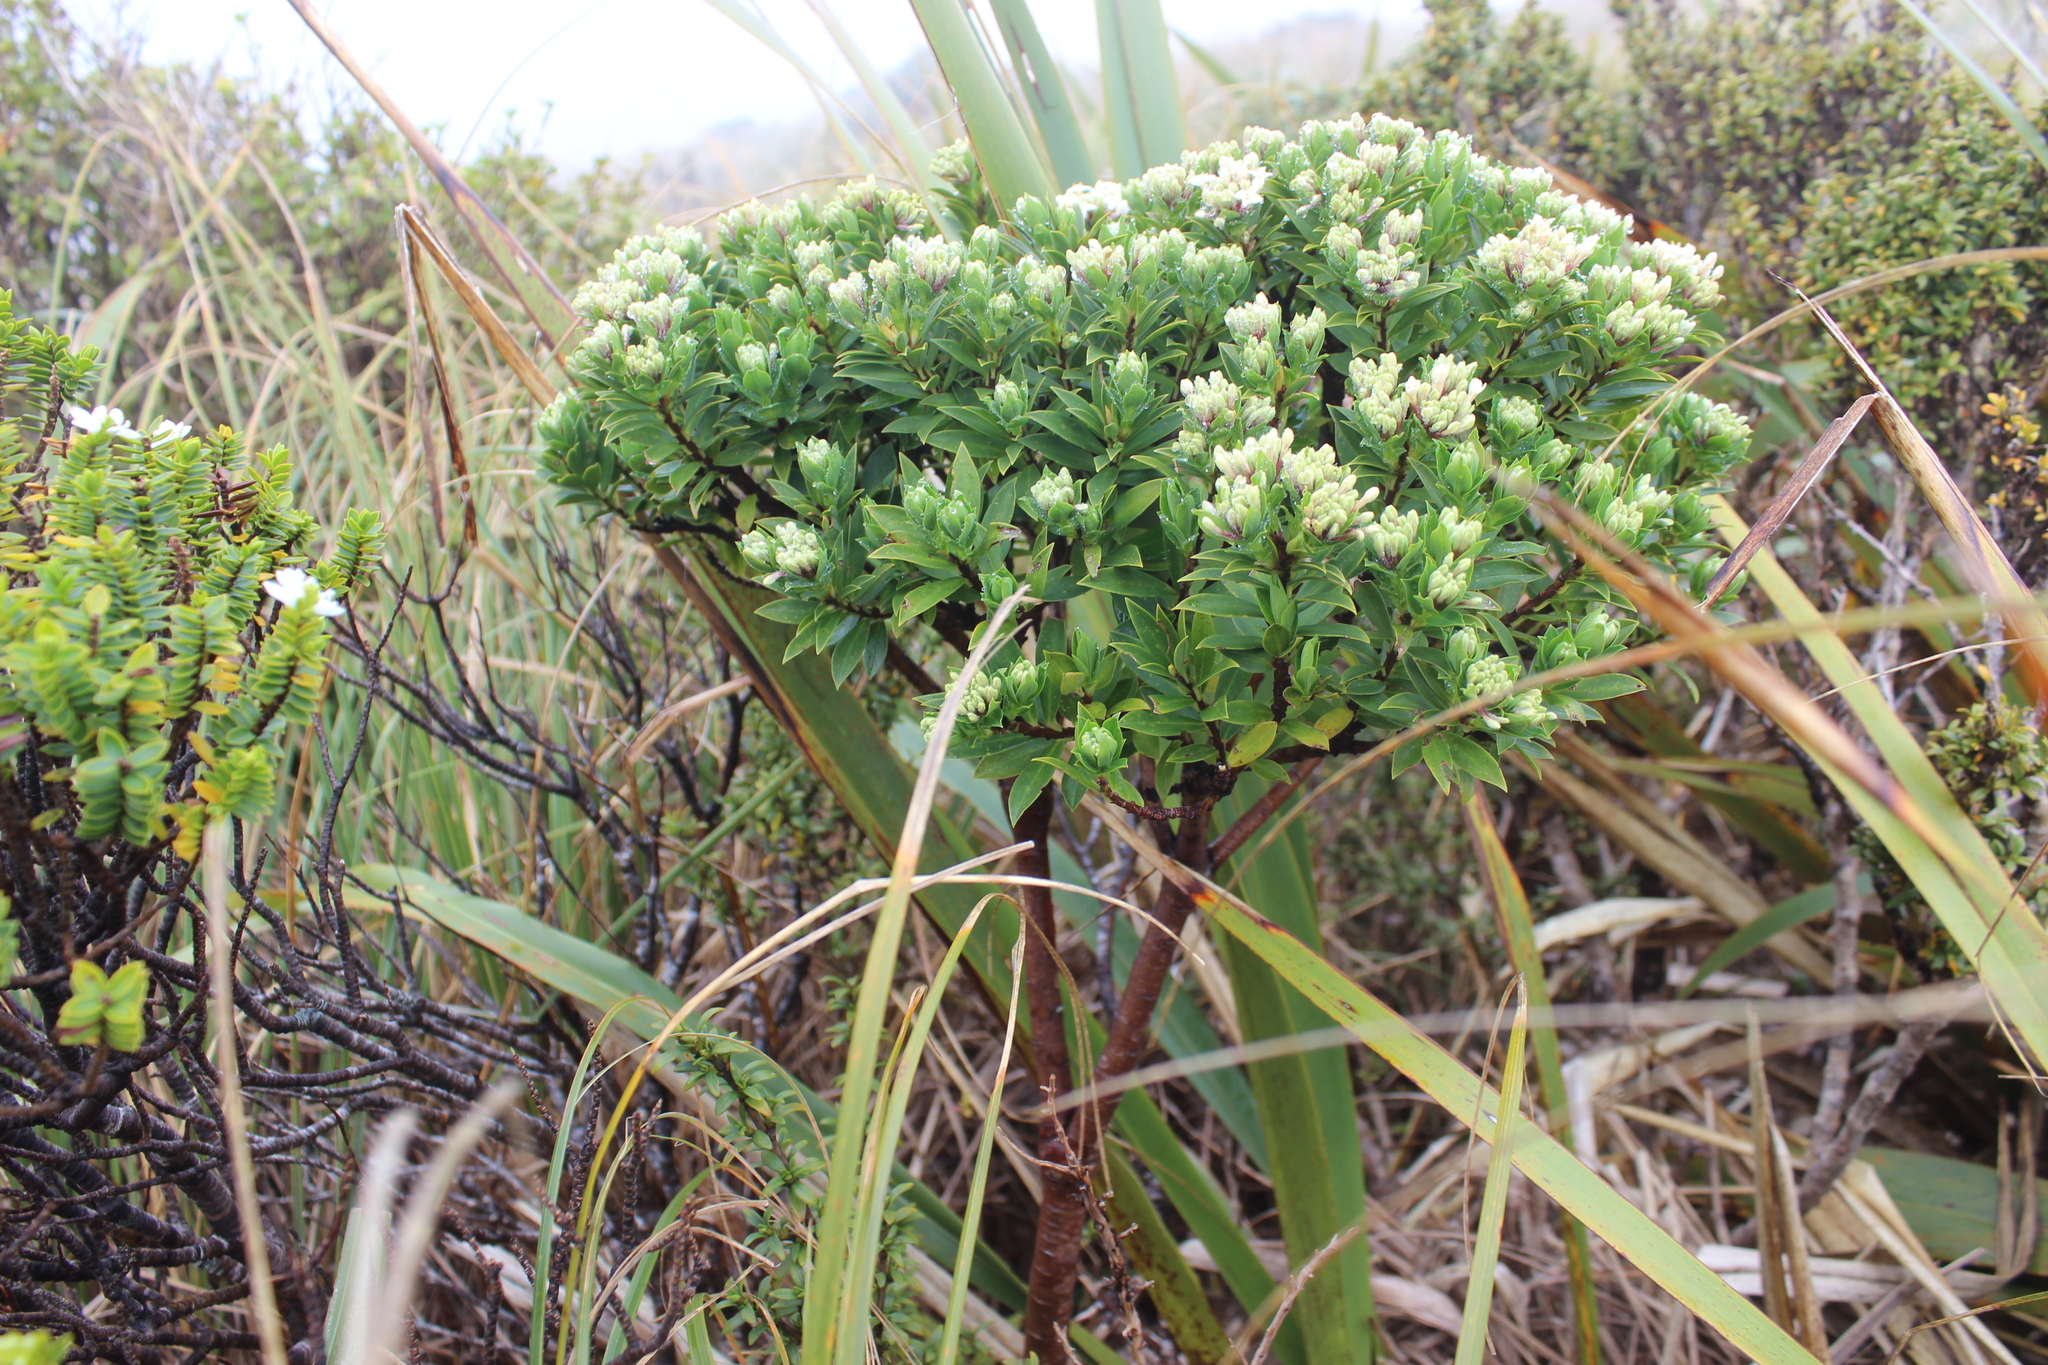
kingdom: Plantae
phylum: Tracheophyta
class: Magnoliopsida
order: Malvales
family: Thymelaeaceae
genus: Pimelea
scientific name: Pimelea gnidia
